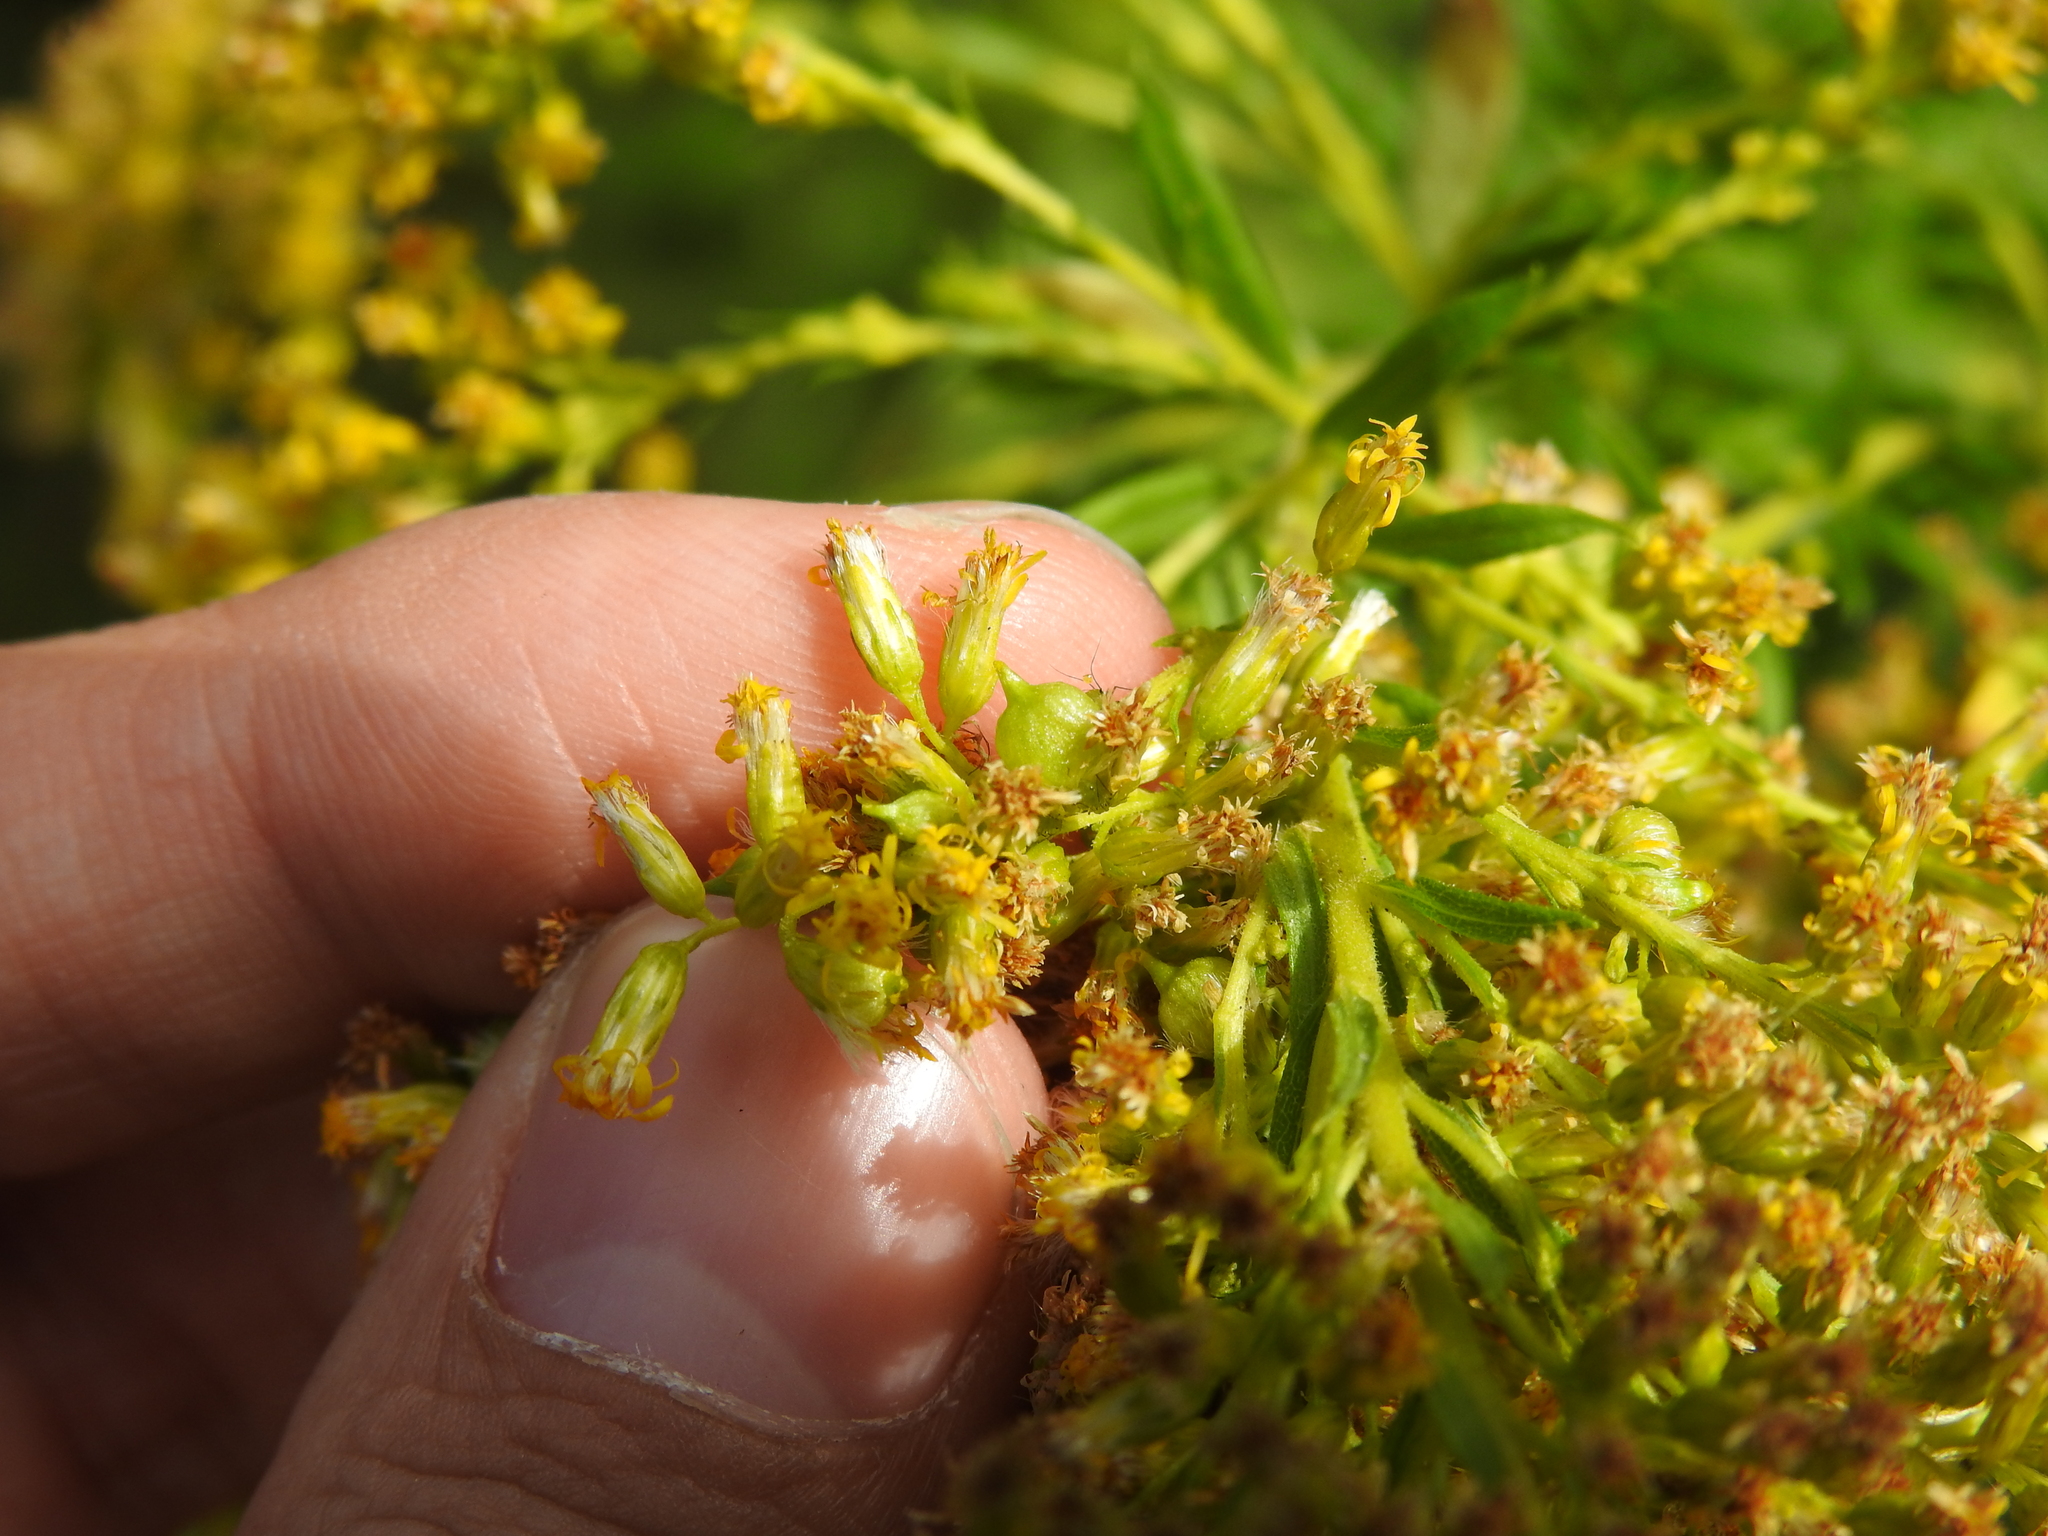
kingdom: Animalia
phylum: Arthropoda
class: Insecta
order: Diptera
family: Cecidomyiidae
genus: Schizomyia
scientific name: Schizomyia racemicola
